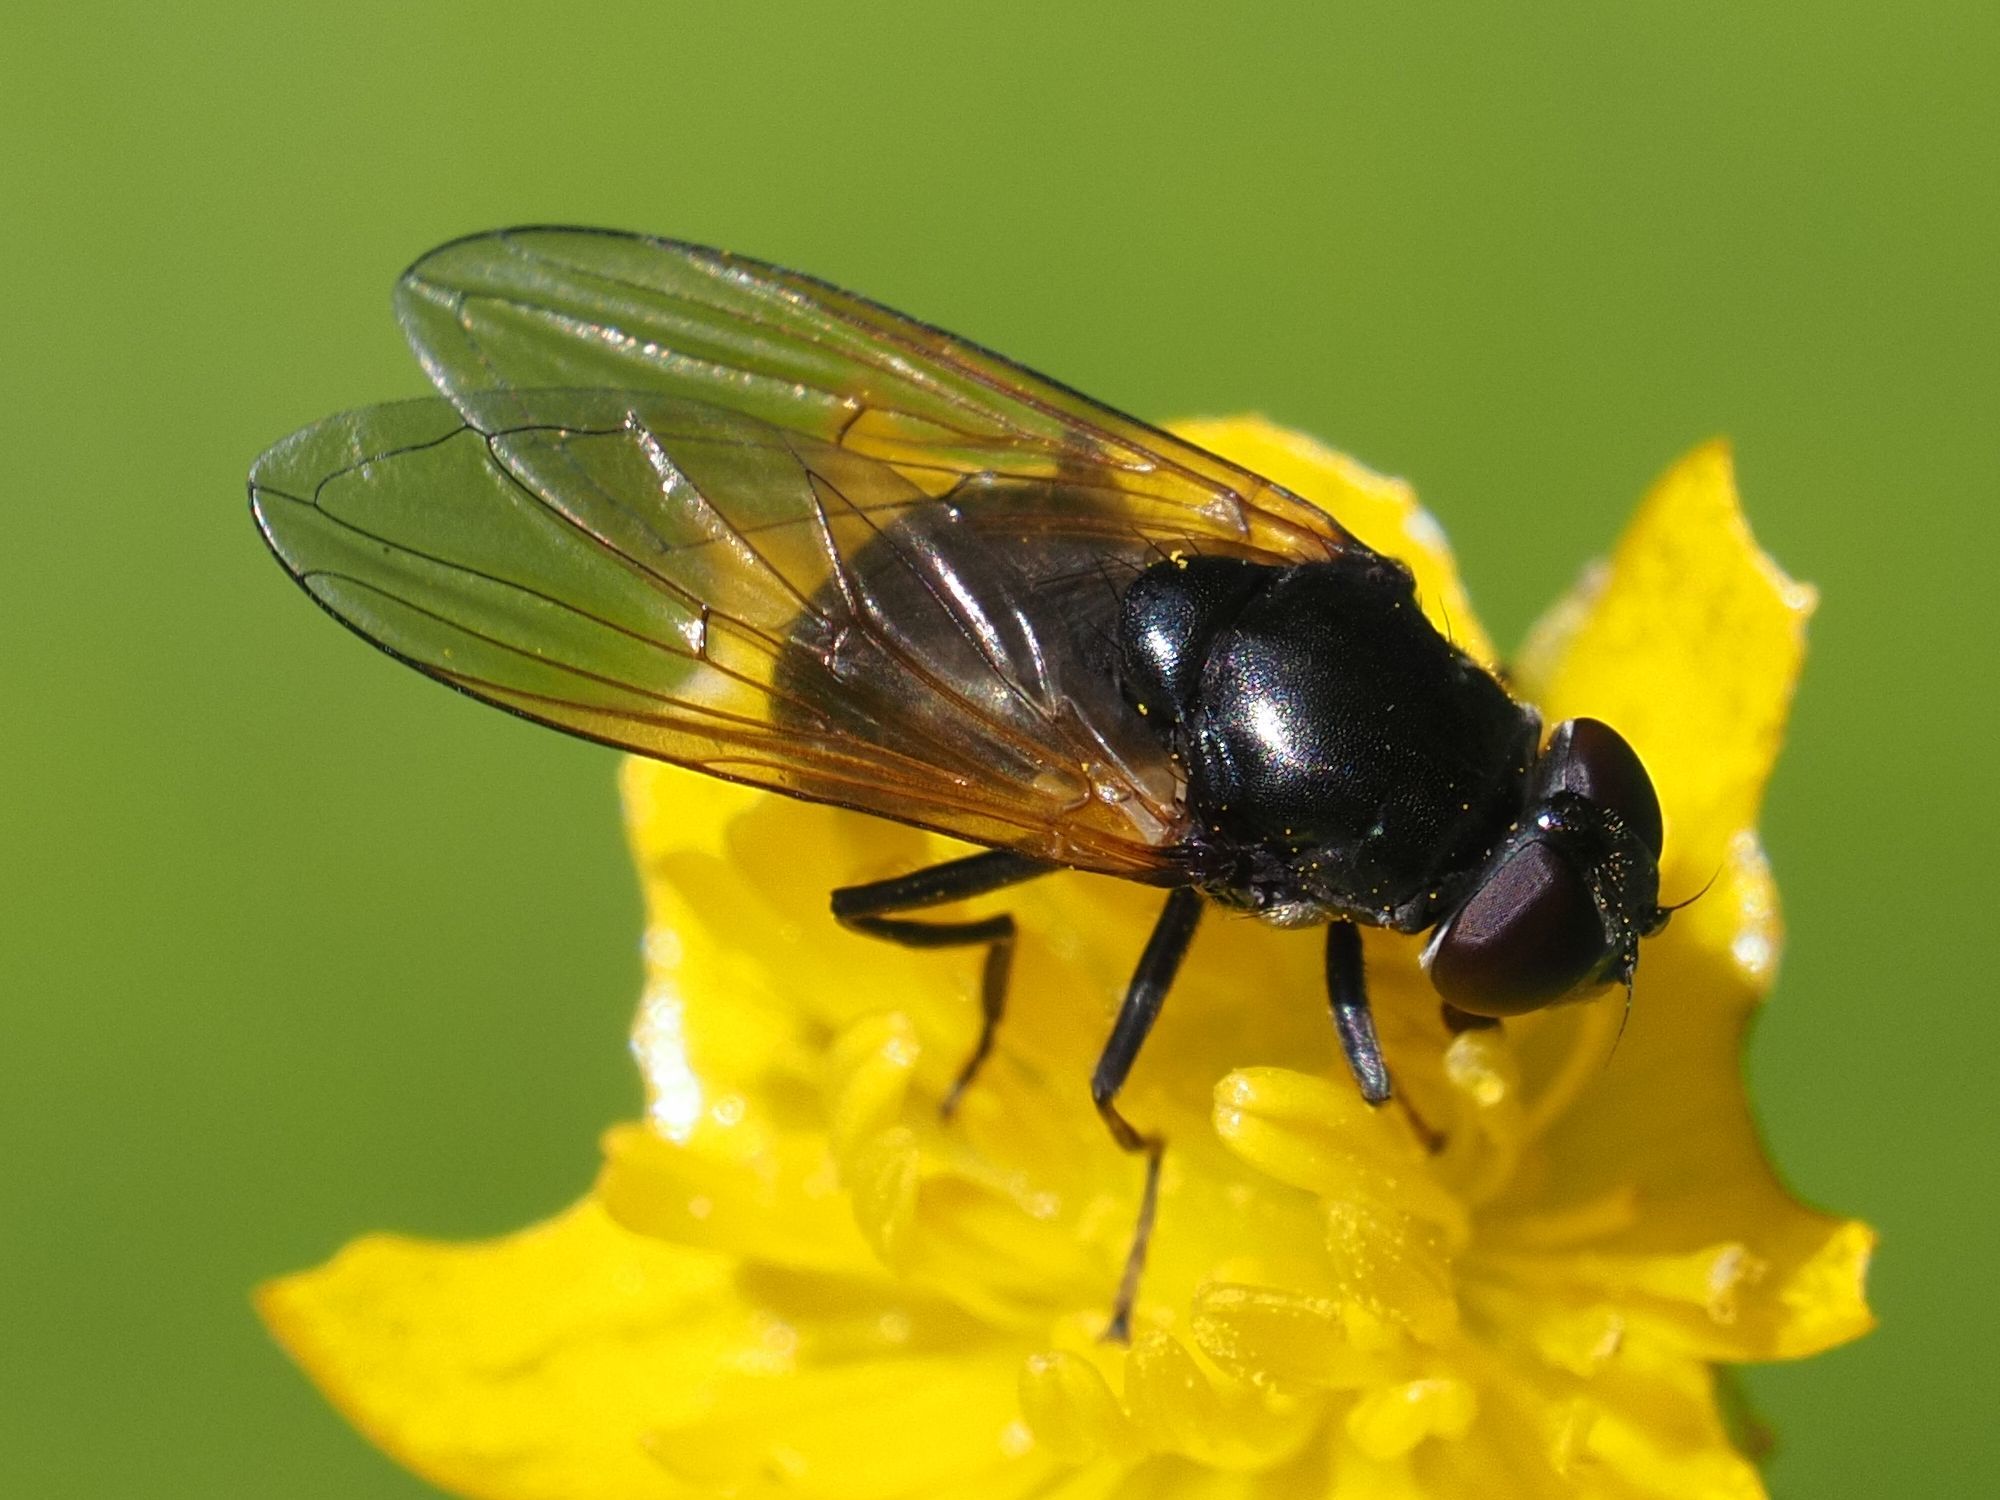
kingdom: Animalia
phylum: Arthropoda
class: Insecta
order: Diptera
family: Syrphidae
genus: Cheilosia
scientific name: Cheilosia impressa
